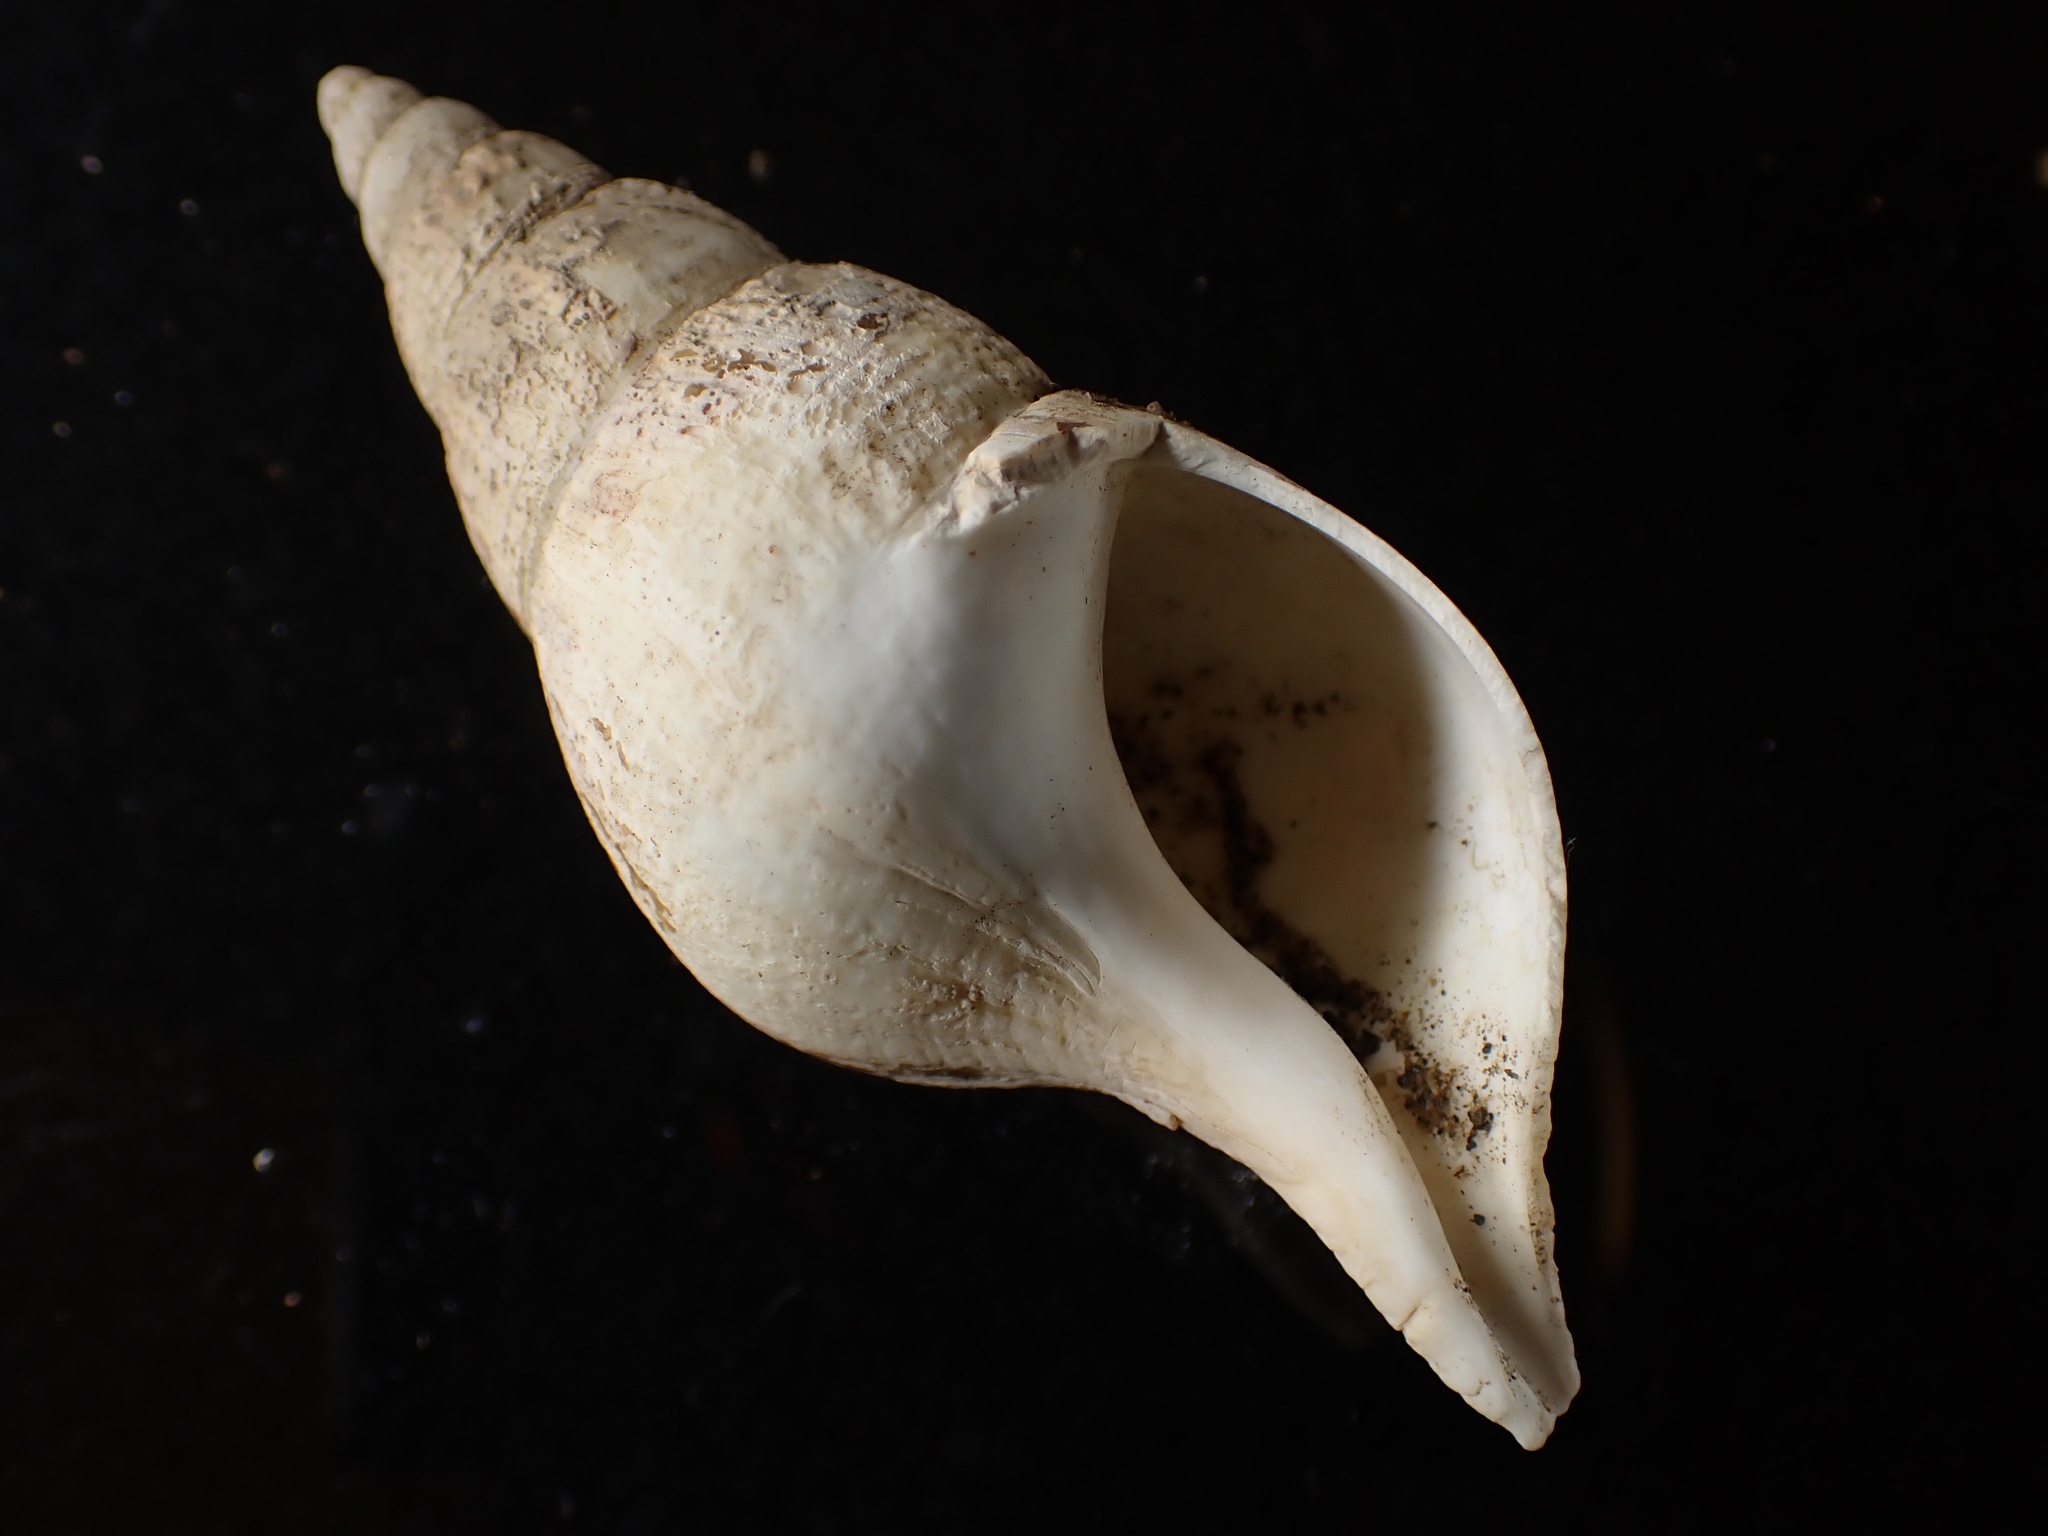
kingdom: Animalia
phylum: Mollusca
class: Gastropoda
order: Neogastropoda
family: Colidae
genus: Colus
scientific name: Colus stimpsoni
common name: Stimpson's colus
